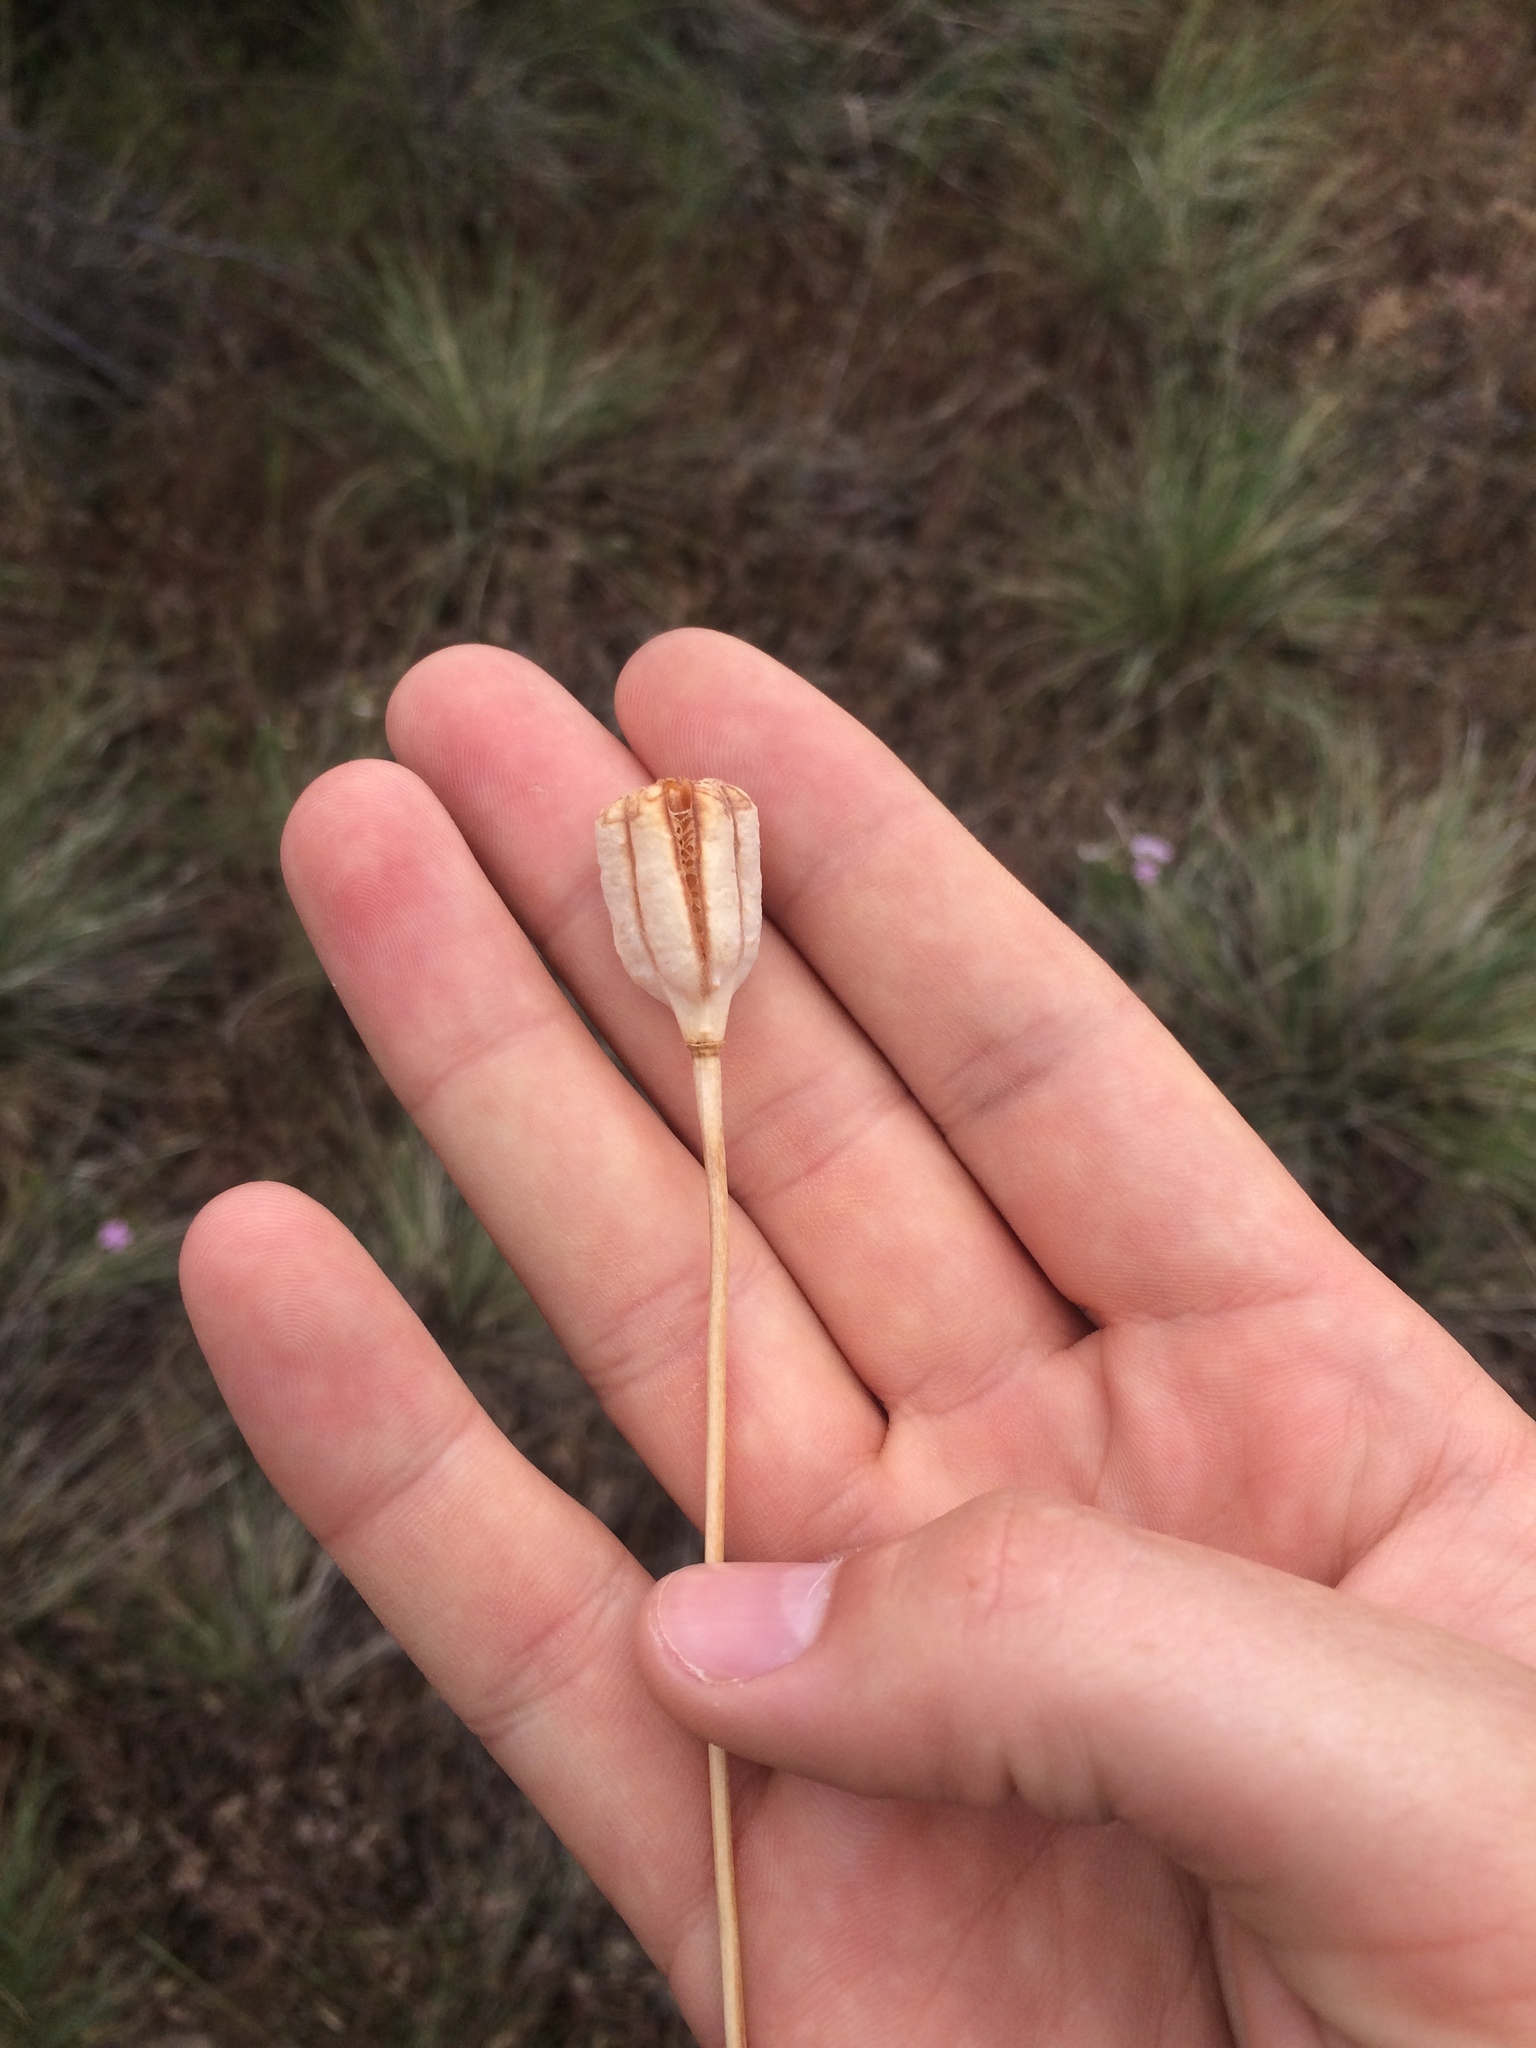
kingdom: Plantae
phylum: Tracheophyta
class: Liliopsida
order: Liliales
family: Liliaceae
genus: Fritillaria
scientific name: Fritillaria pudica
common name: Yellow fritillary
